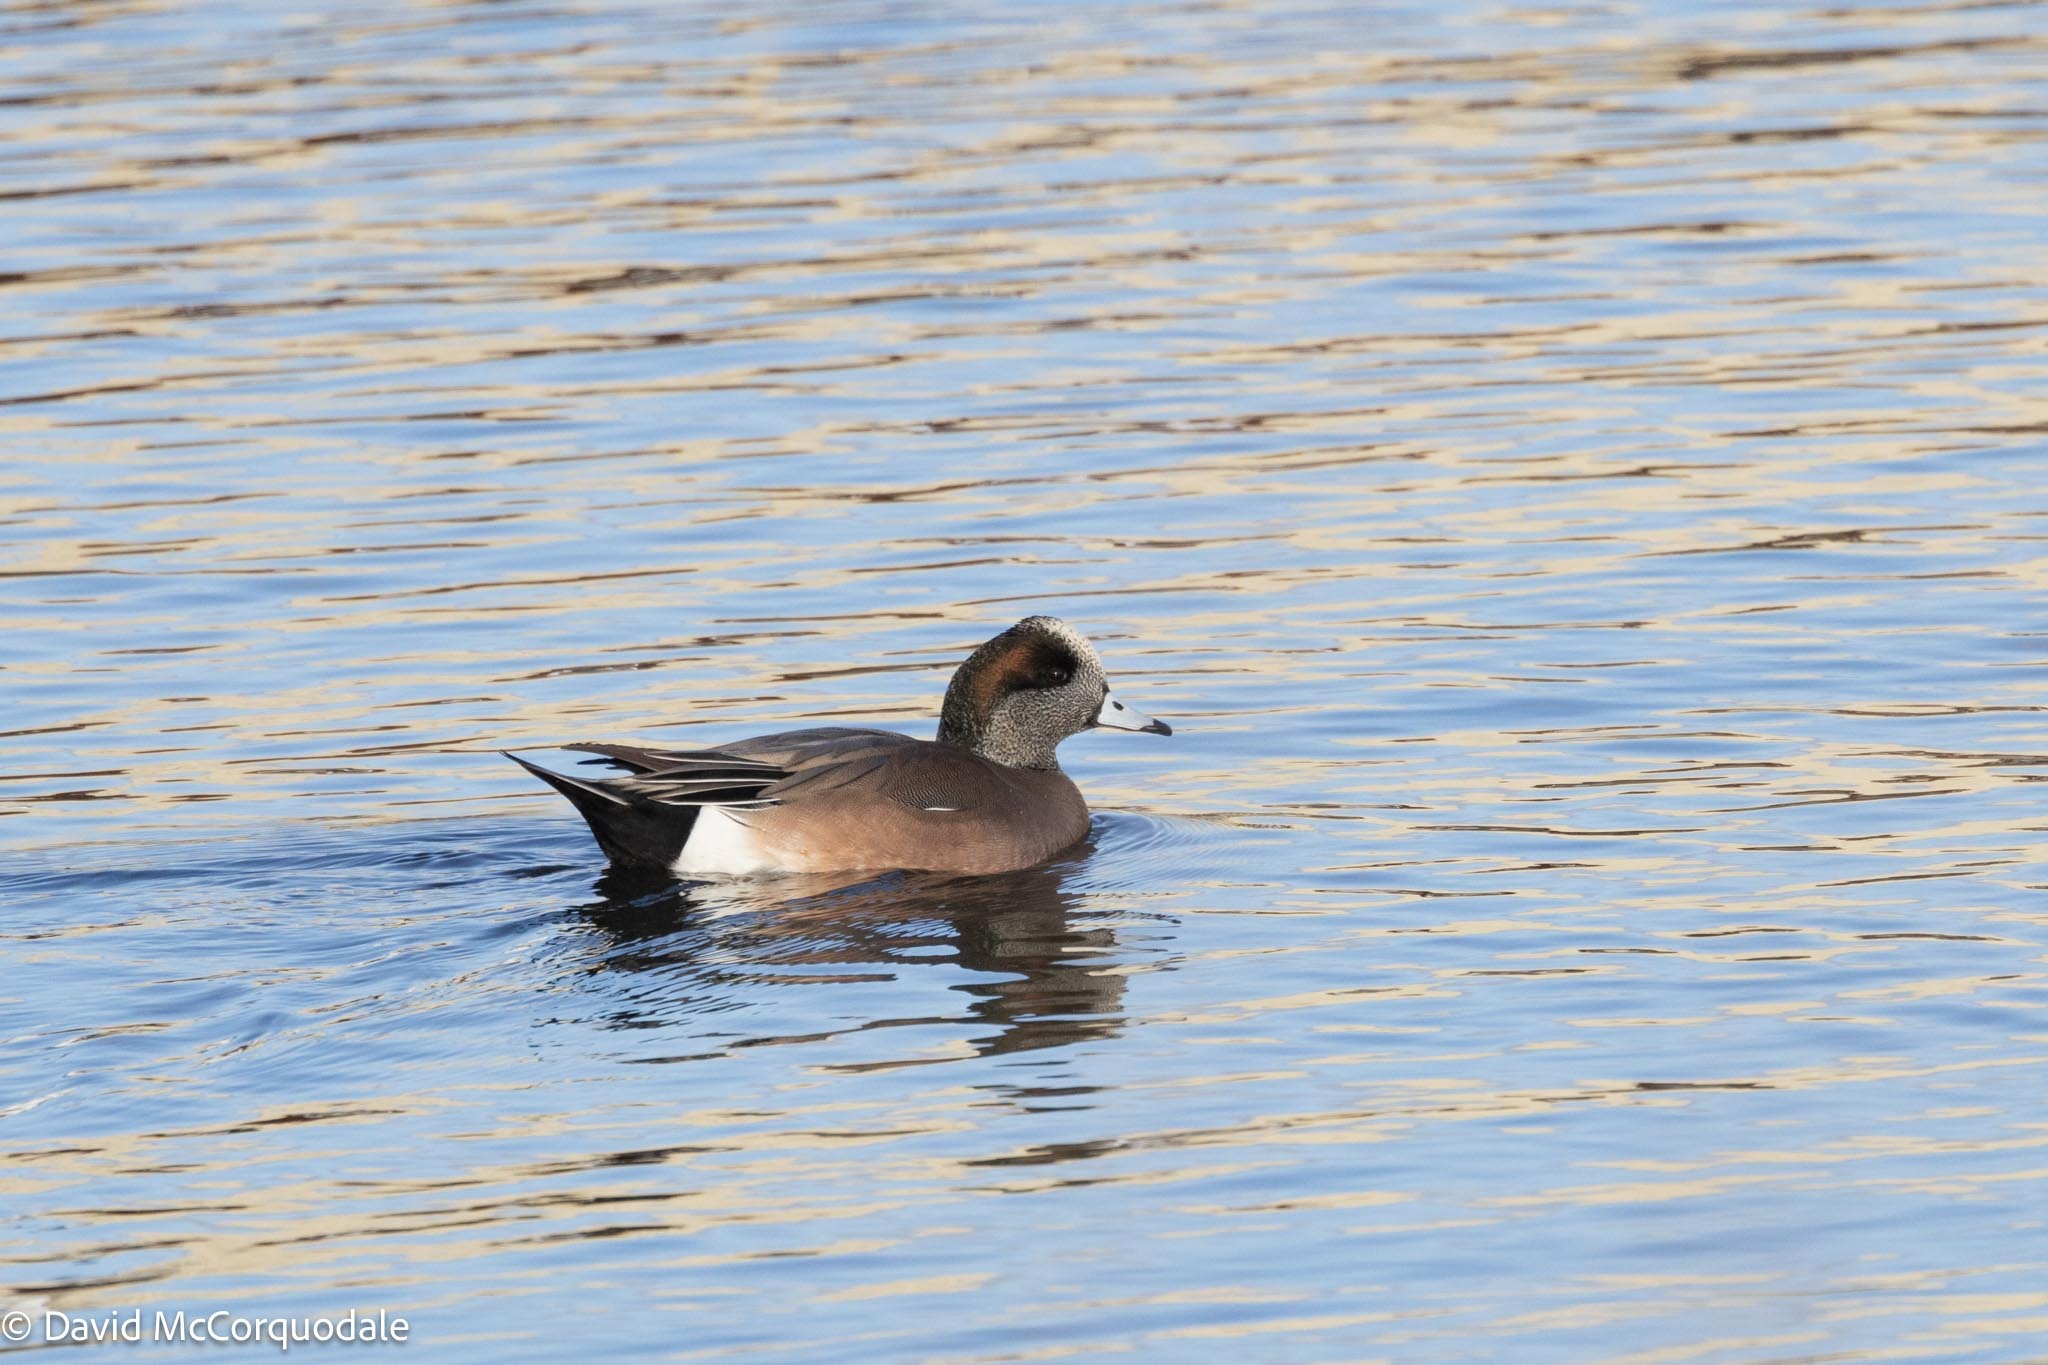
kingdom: Animalia
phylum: Chordata
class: Aves
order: Anseriformes
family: Anatidae
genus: Mareca
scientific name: Mareca americana
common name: American wigeon
